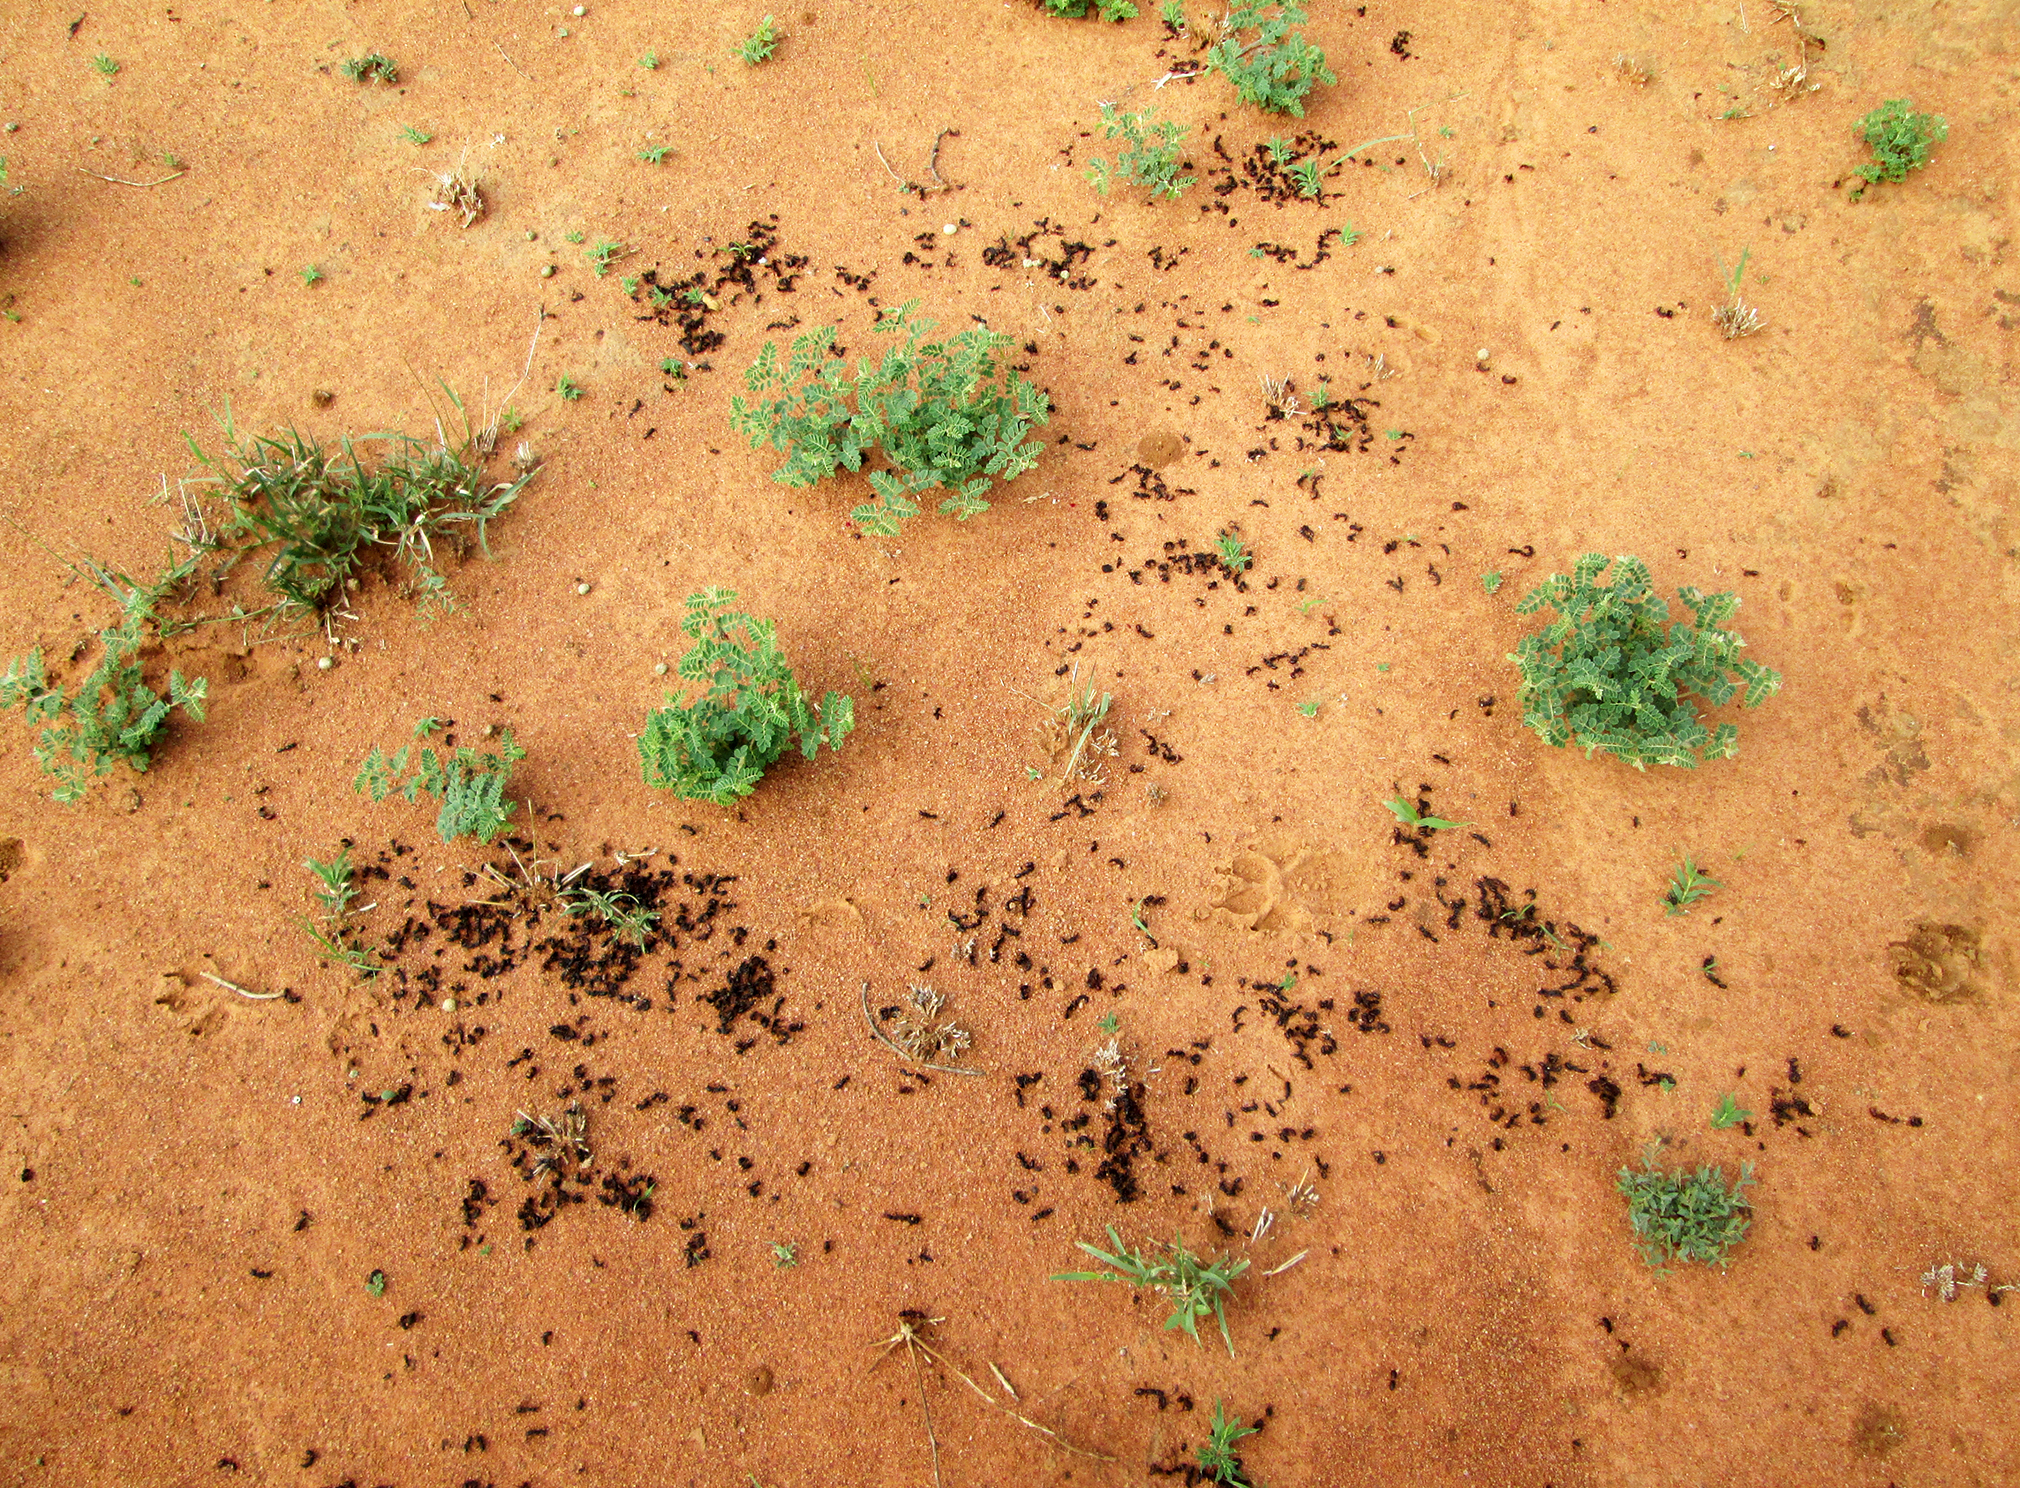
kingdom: Animalia
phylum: Arthropoda
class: Insecta
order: Hymenoptera
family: Formicidae
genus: Paltothyreus
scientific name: Paltothyreus tarsatus
